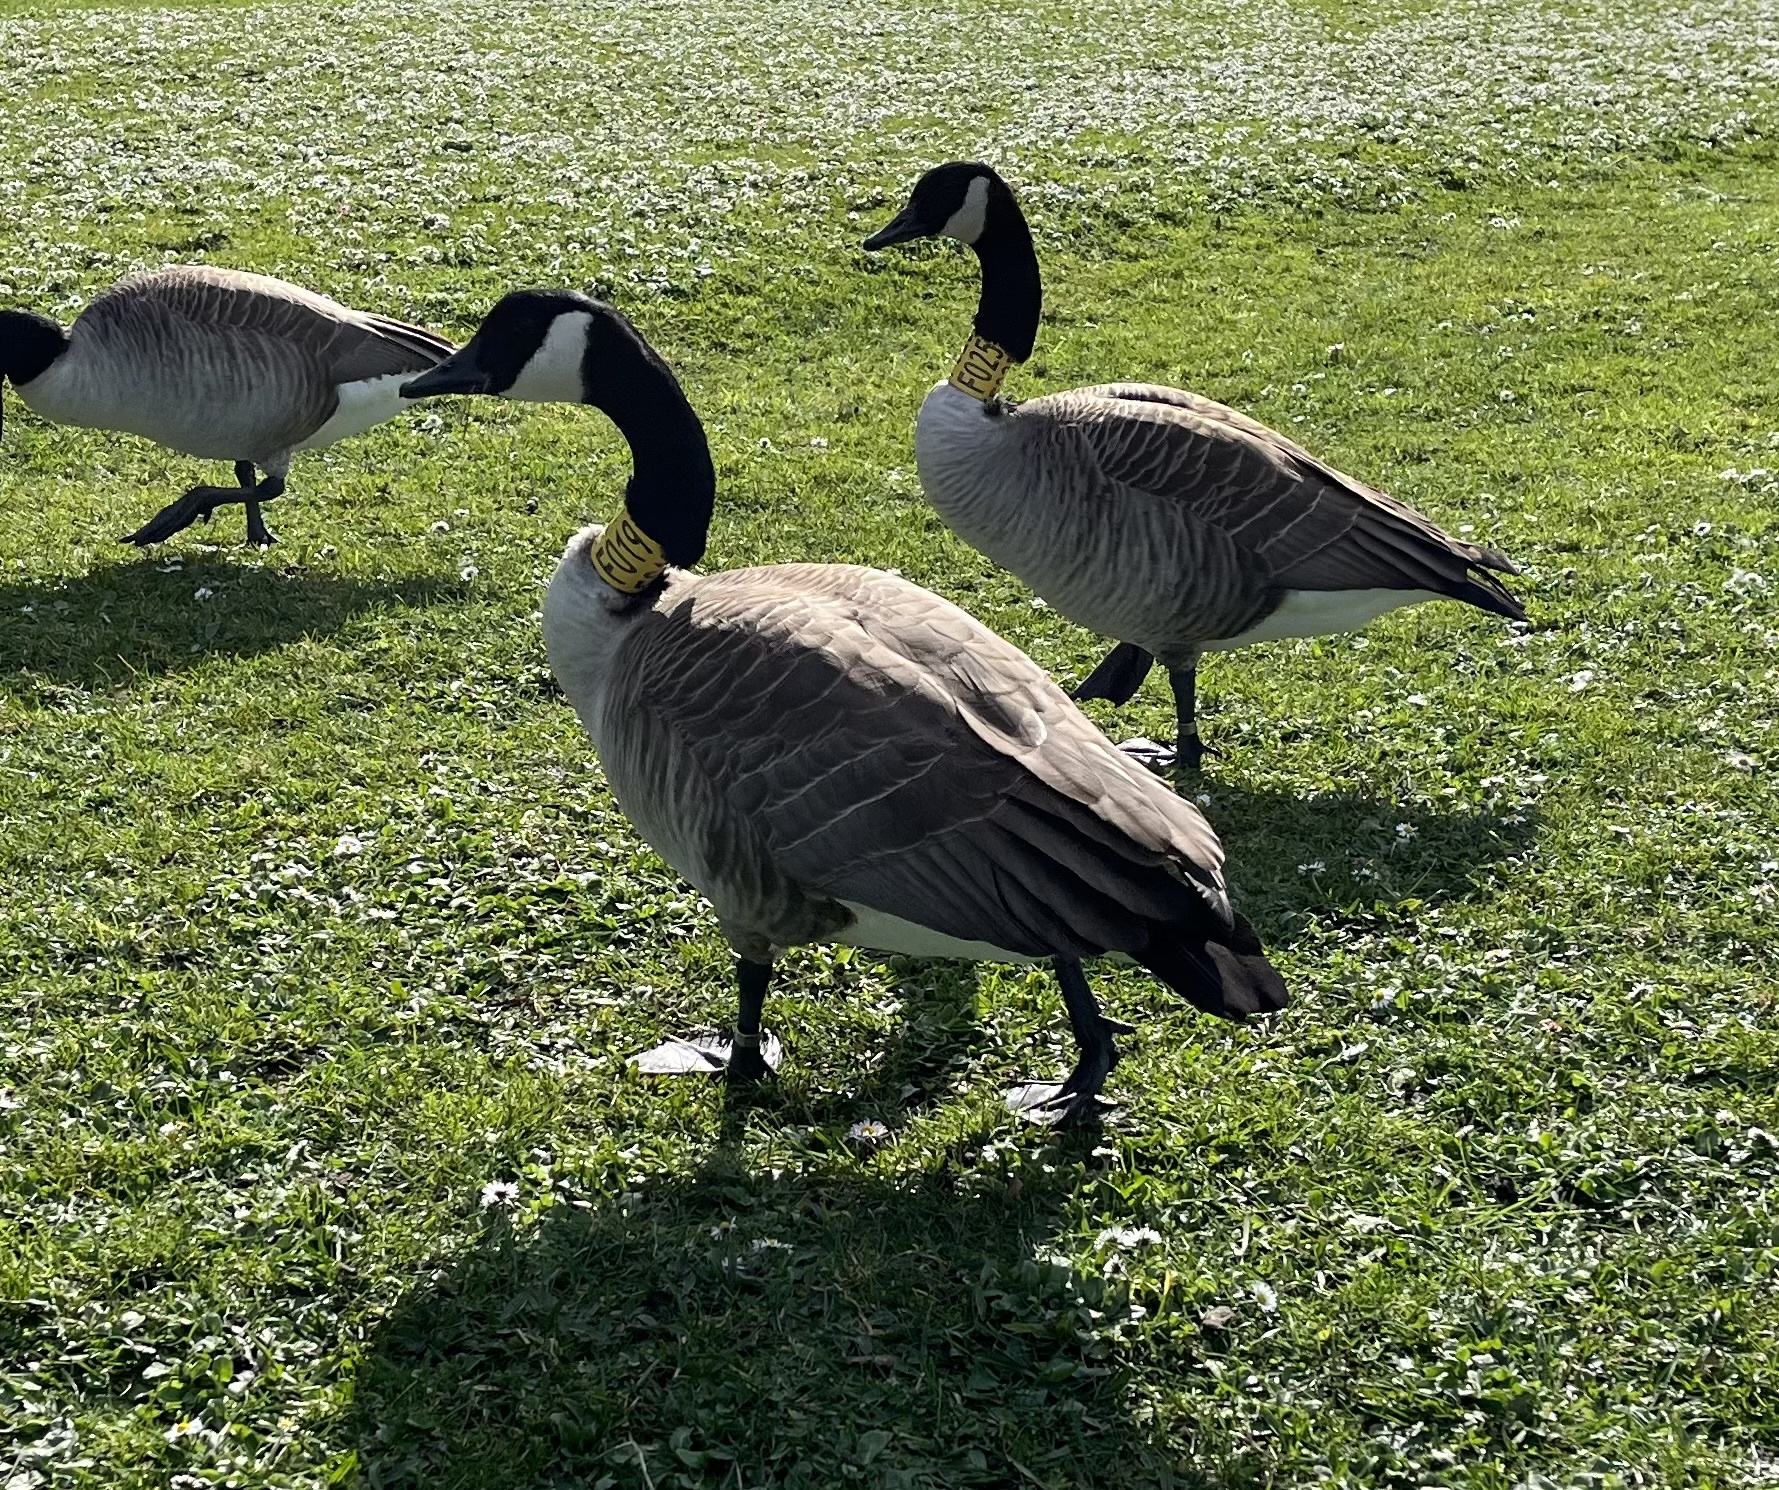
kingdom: Animalia
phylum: Chordata
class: Aves
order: Anseriformes
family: Anatidae
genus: Branta
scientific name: Branta canadensis
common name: Canada goose
